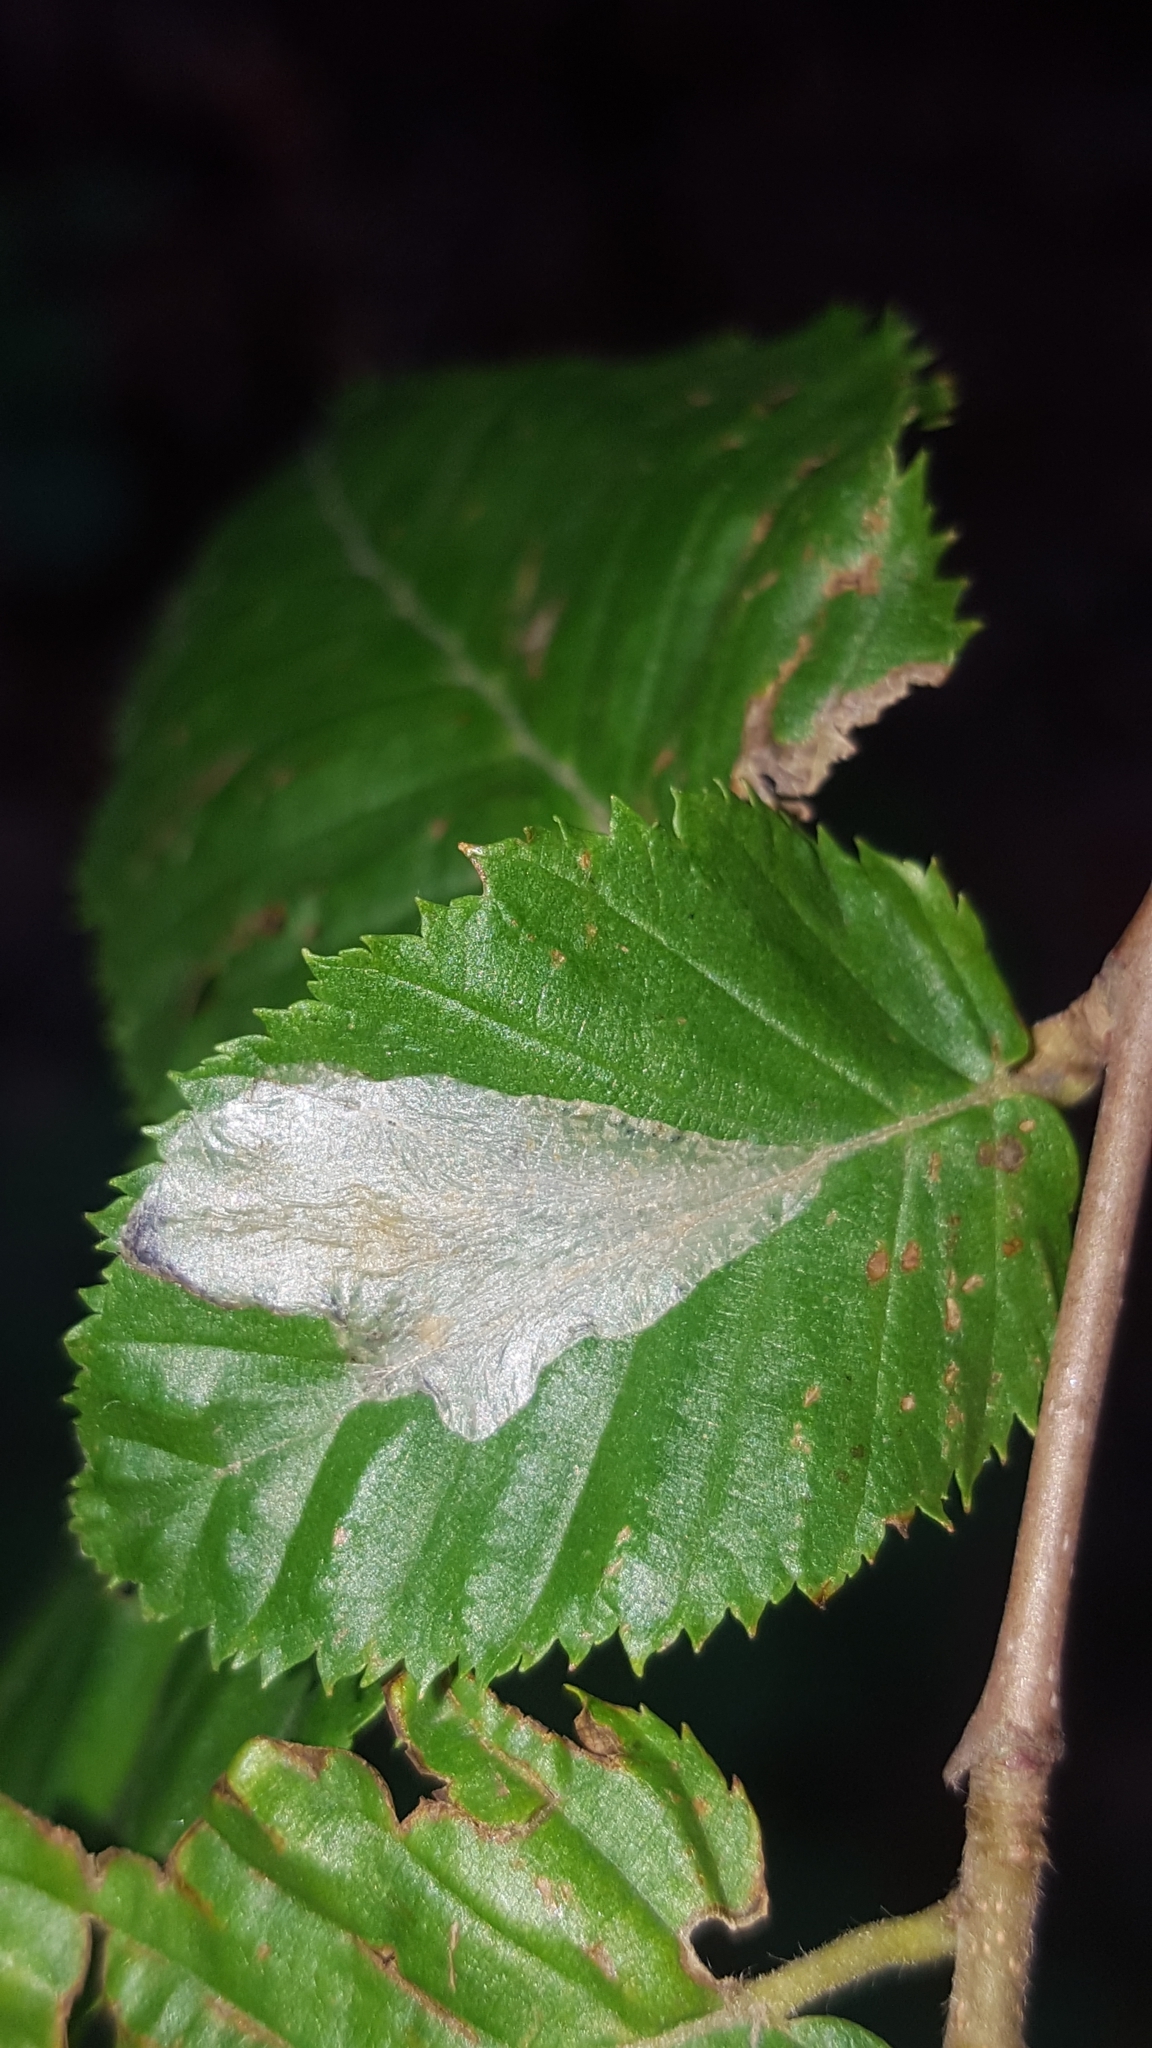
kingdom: Animalia
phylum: Arthropoda
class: Insecta
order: Lepidoptera
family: Gracillariidae
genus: Phyllonorycter
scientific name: Phyllonorycter esperella
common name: Dark hornbeam midget
